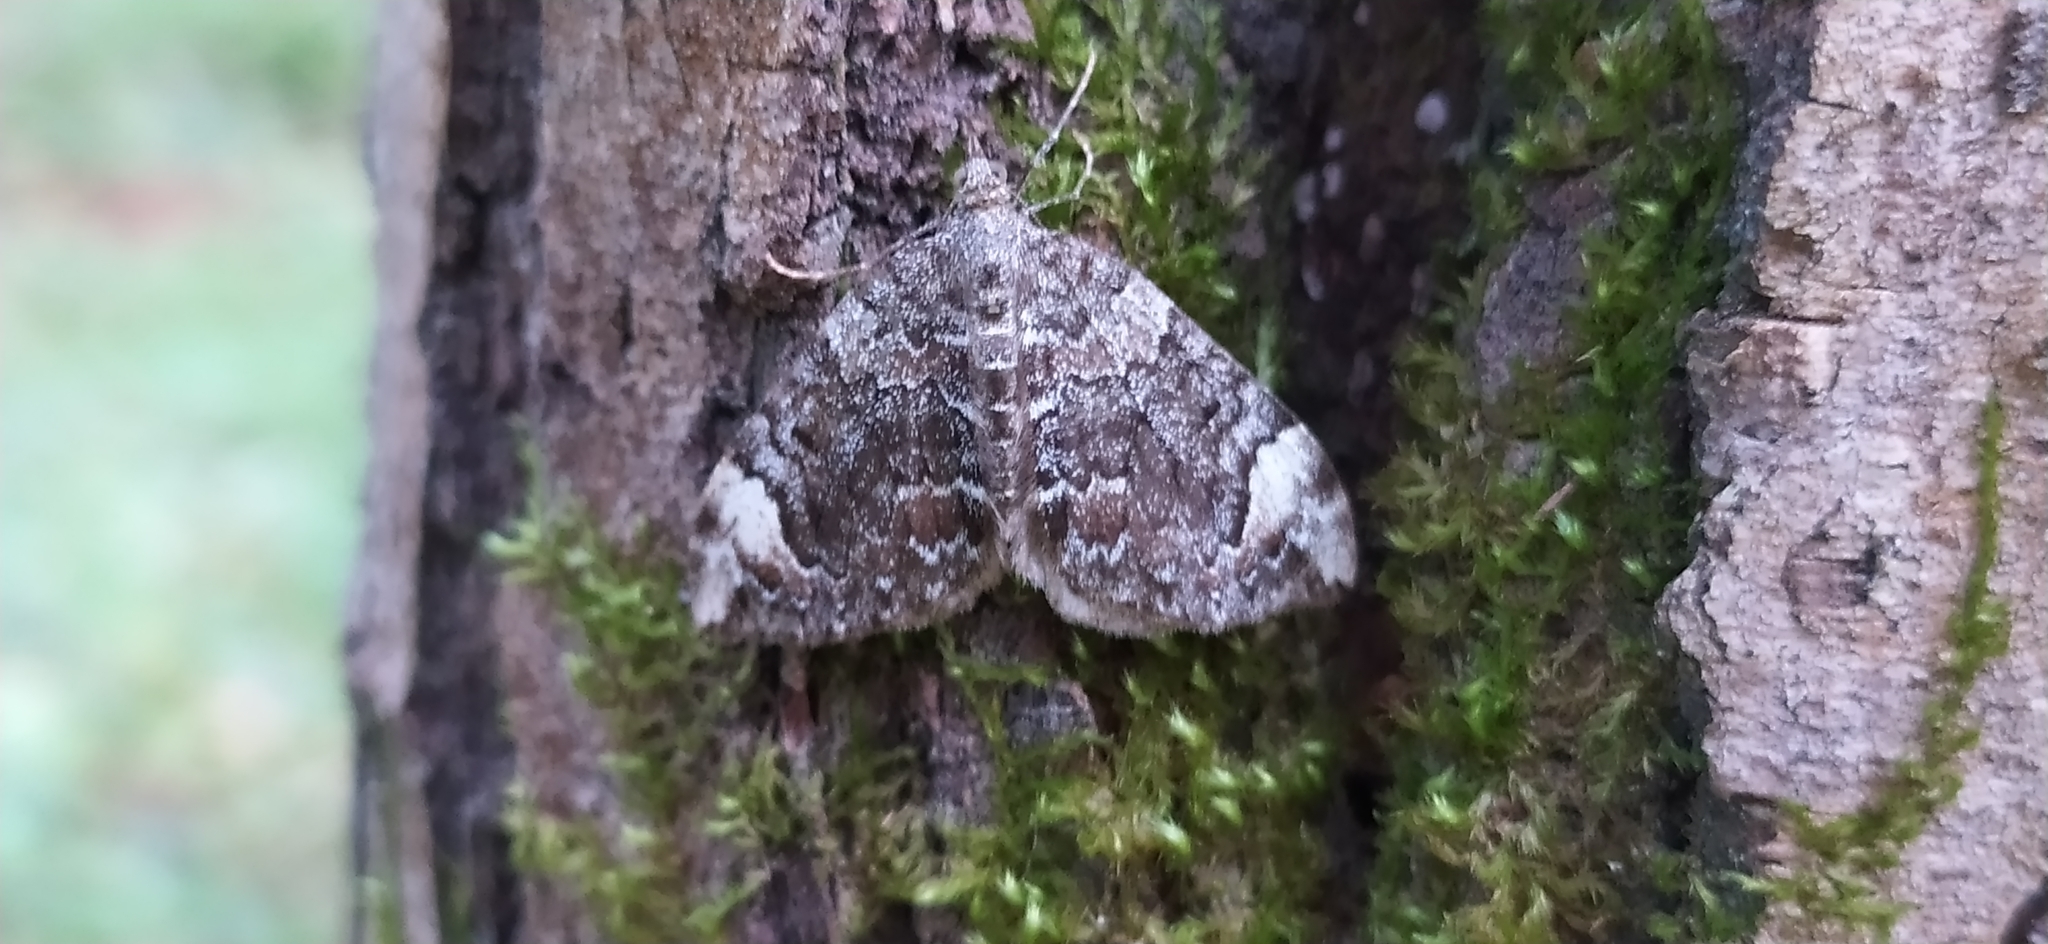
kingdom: Animalia
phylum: Arthropoda
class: Insecta
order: Lepidoptera
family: Geometridae
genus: Dysstroma
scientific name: Dysstroma citrata
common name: Dark marbled carpet
